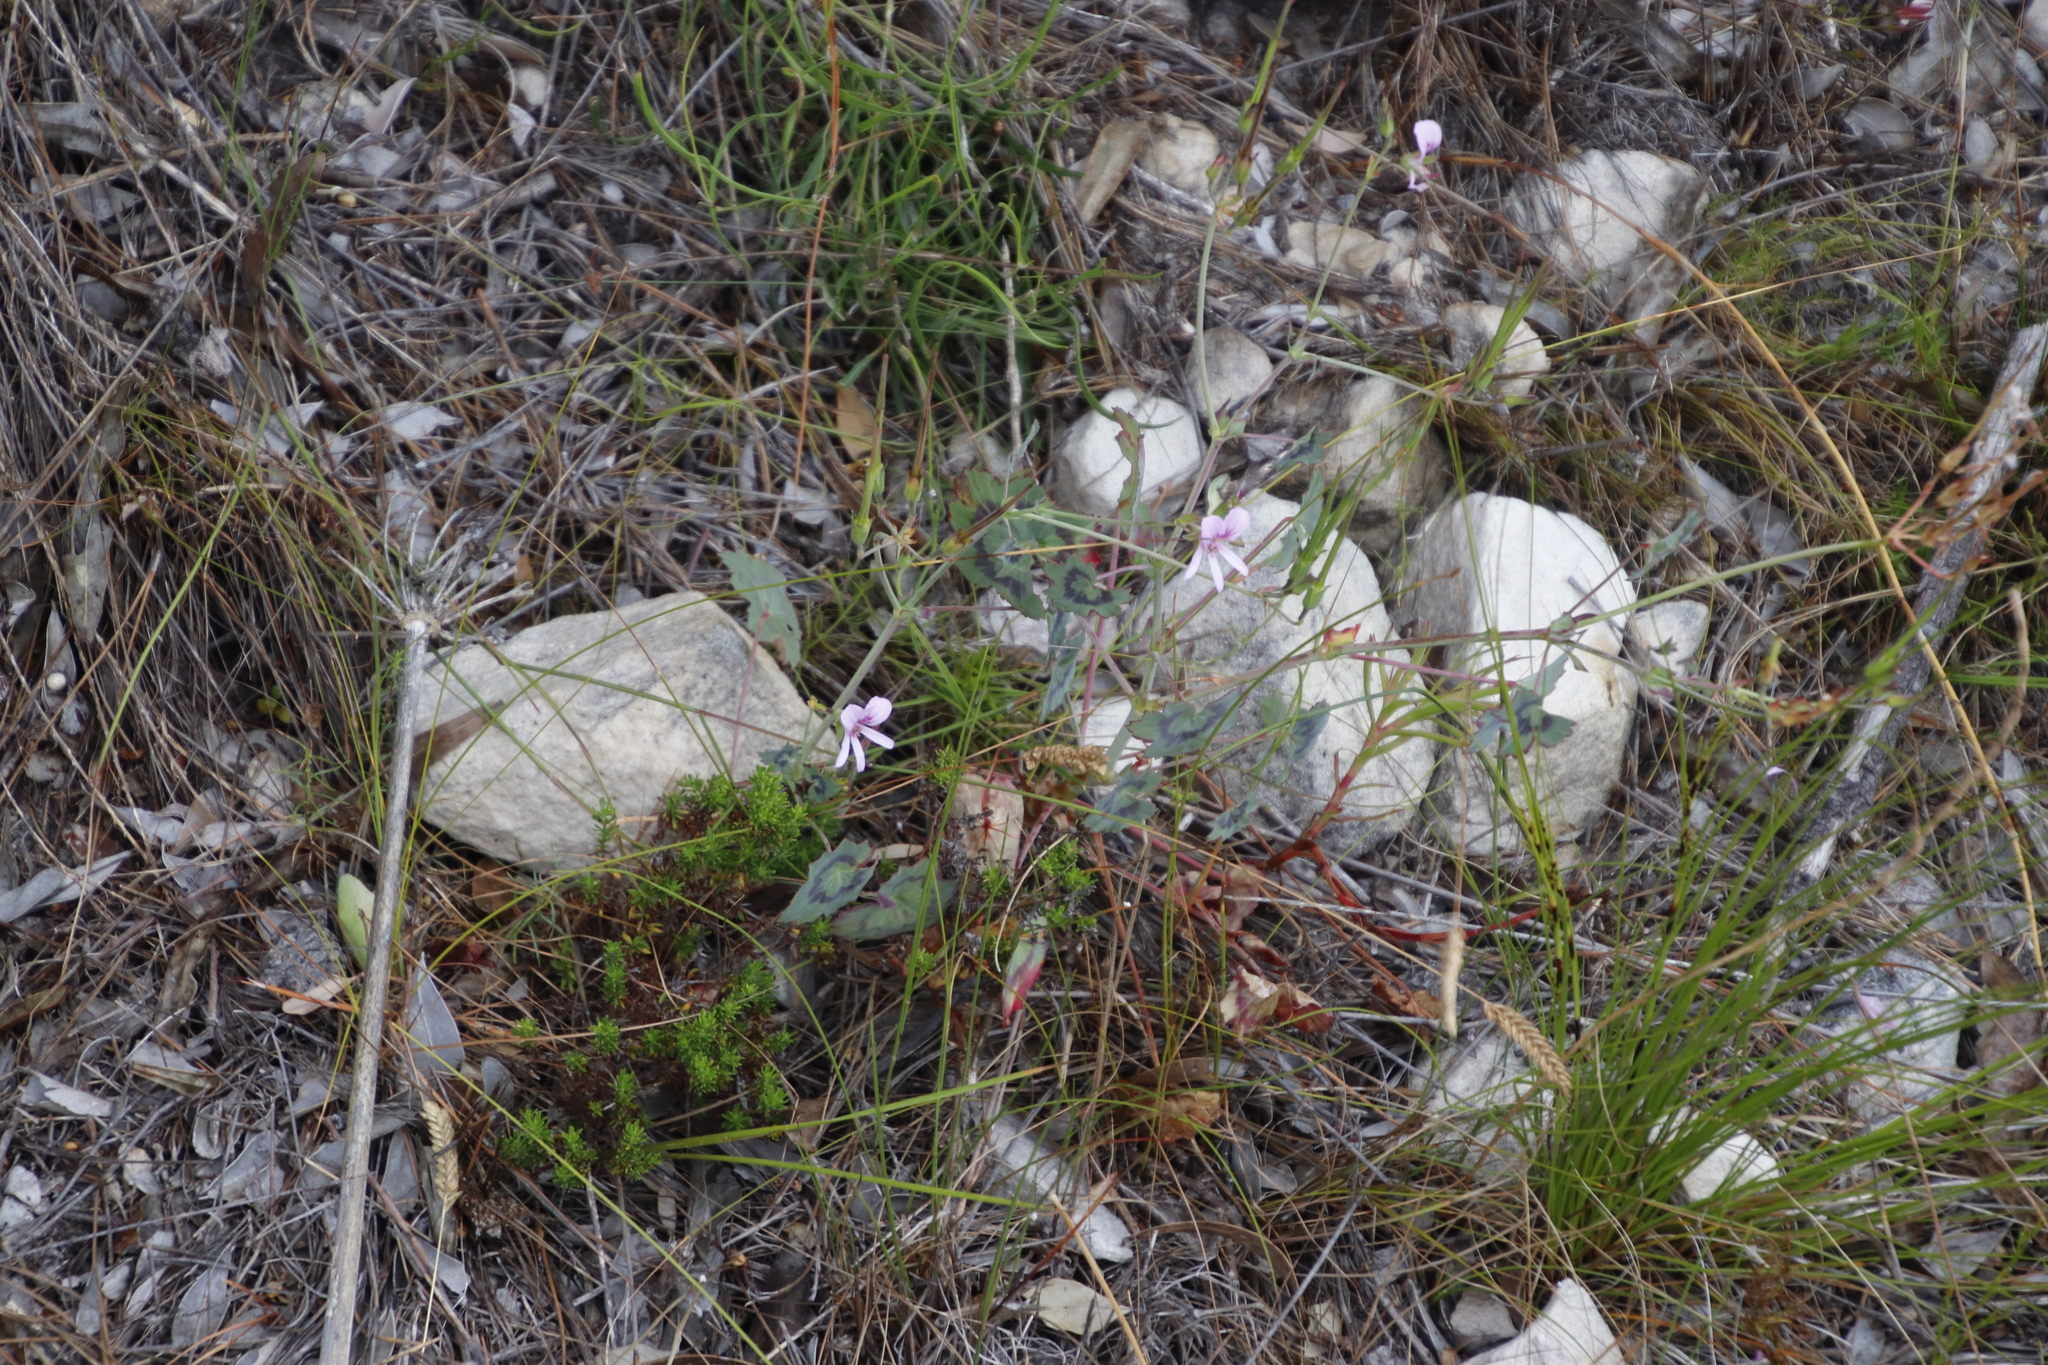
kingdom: Plantae
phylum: Tracheophyta
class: Magnoliopsida
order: Geraniales
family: Geraniaceae
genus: Pelargonium
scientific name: Pelargonium tabulare
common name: Table mountain pelargonium
